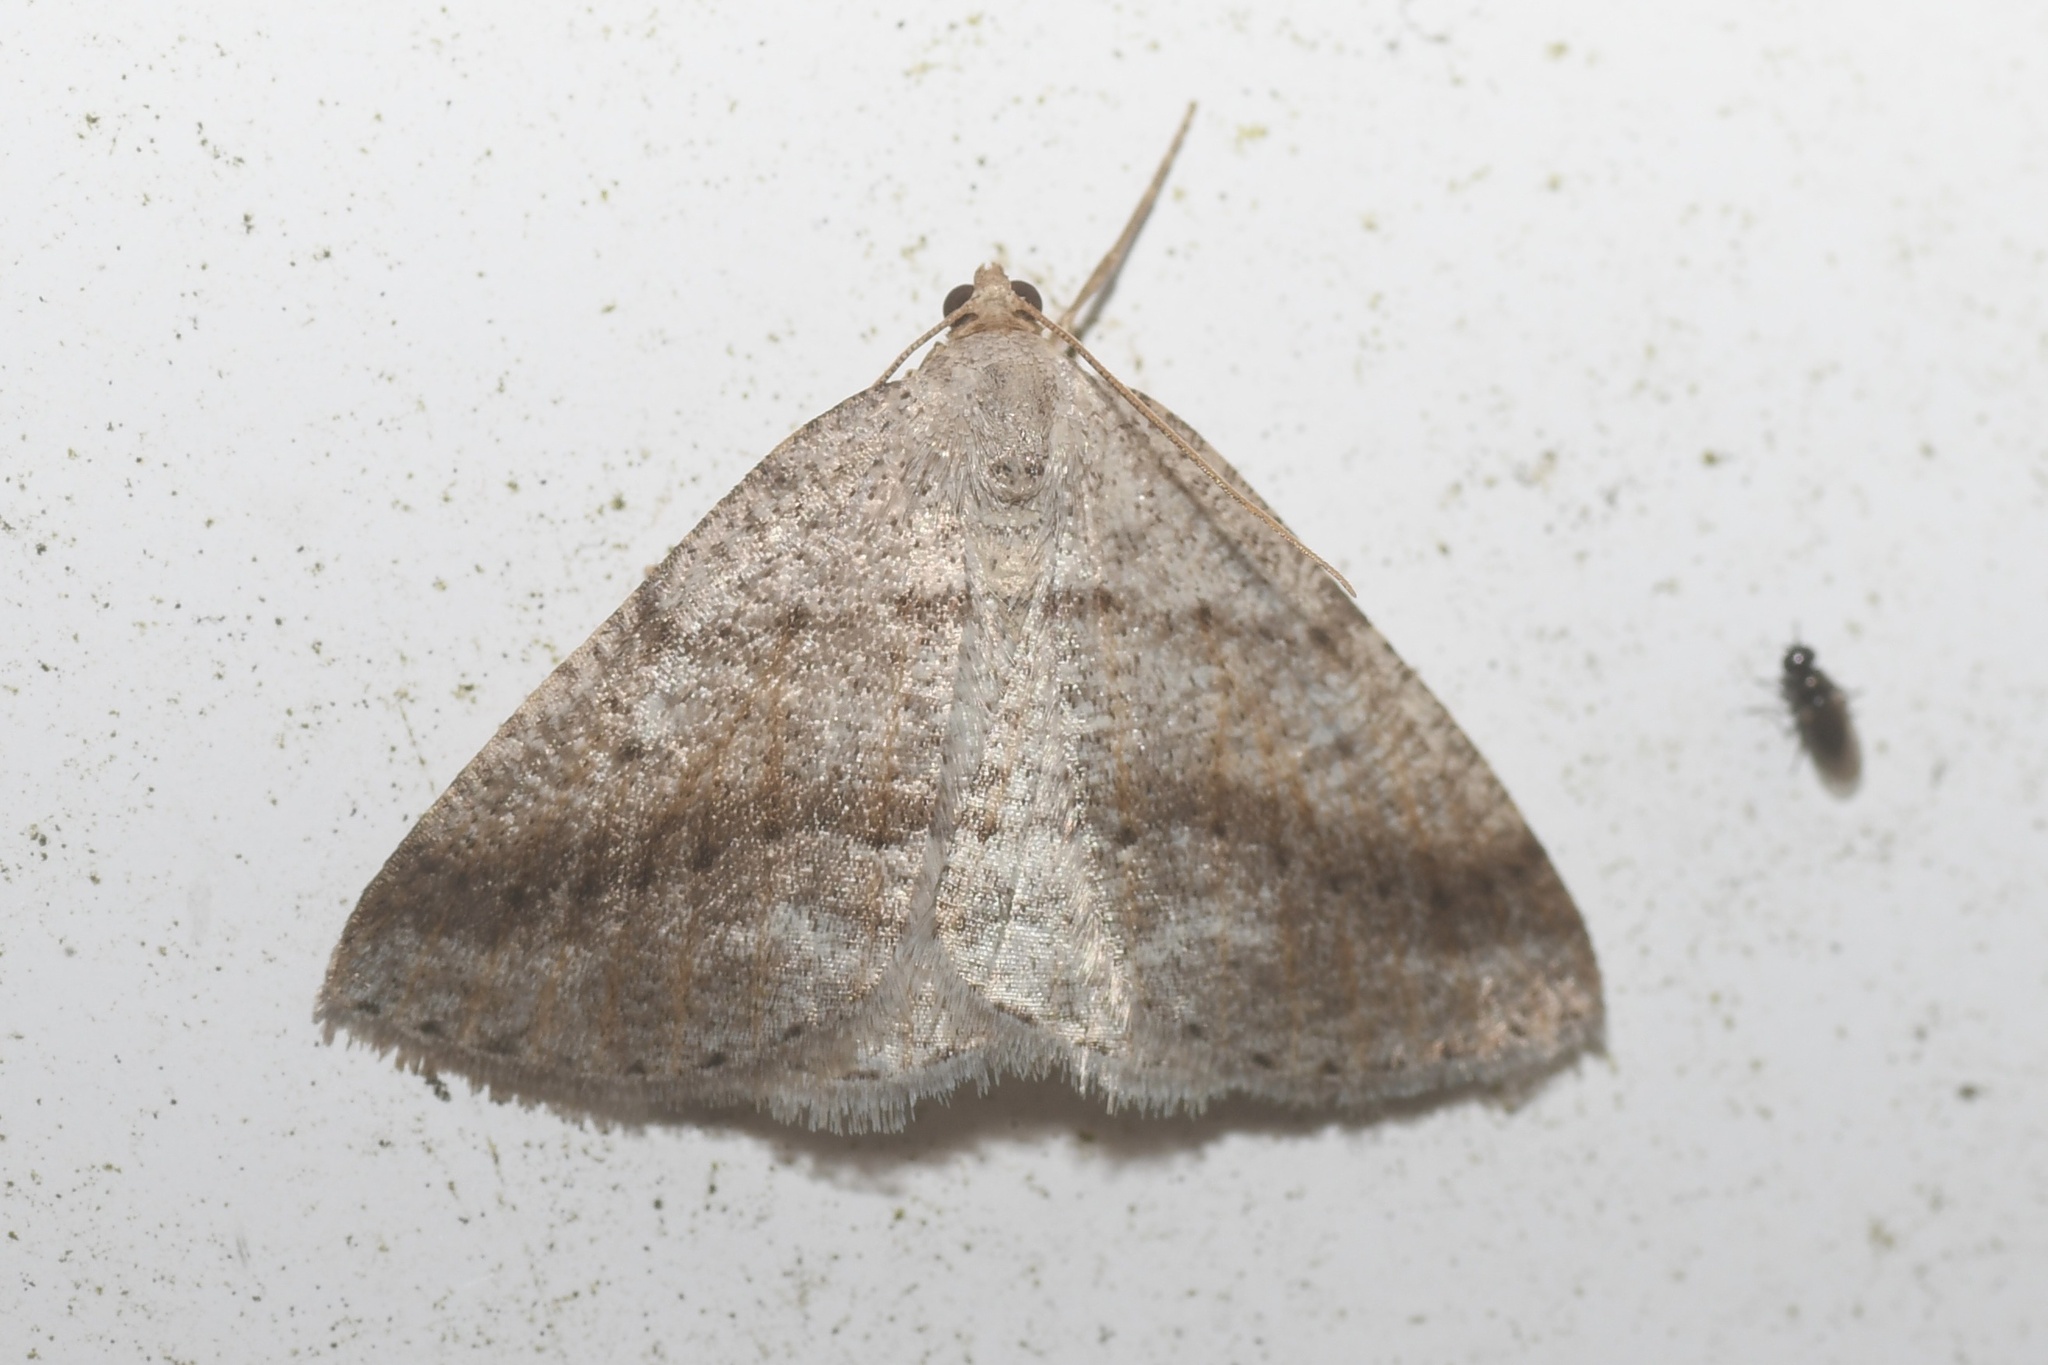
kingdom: Animalia
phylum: Arthropoda
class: Insecta
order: Lepidoptera
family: Geometridae
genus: Tacparia
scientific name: Tacparia detersata
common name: Pale alder moth
